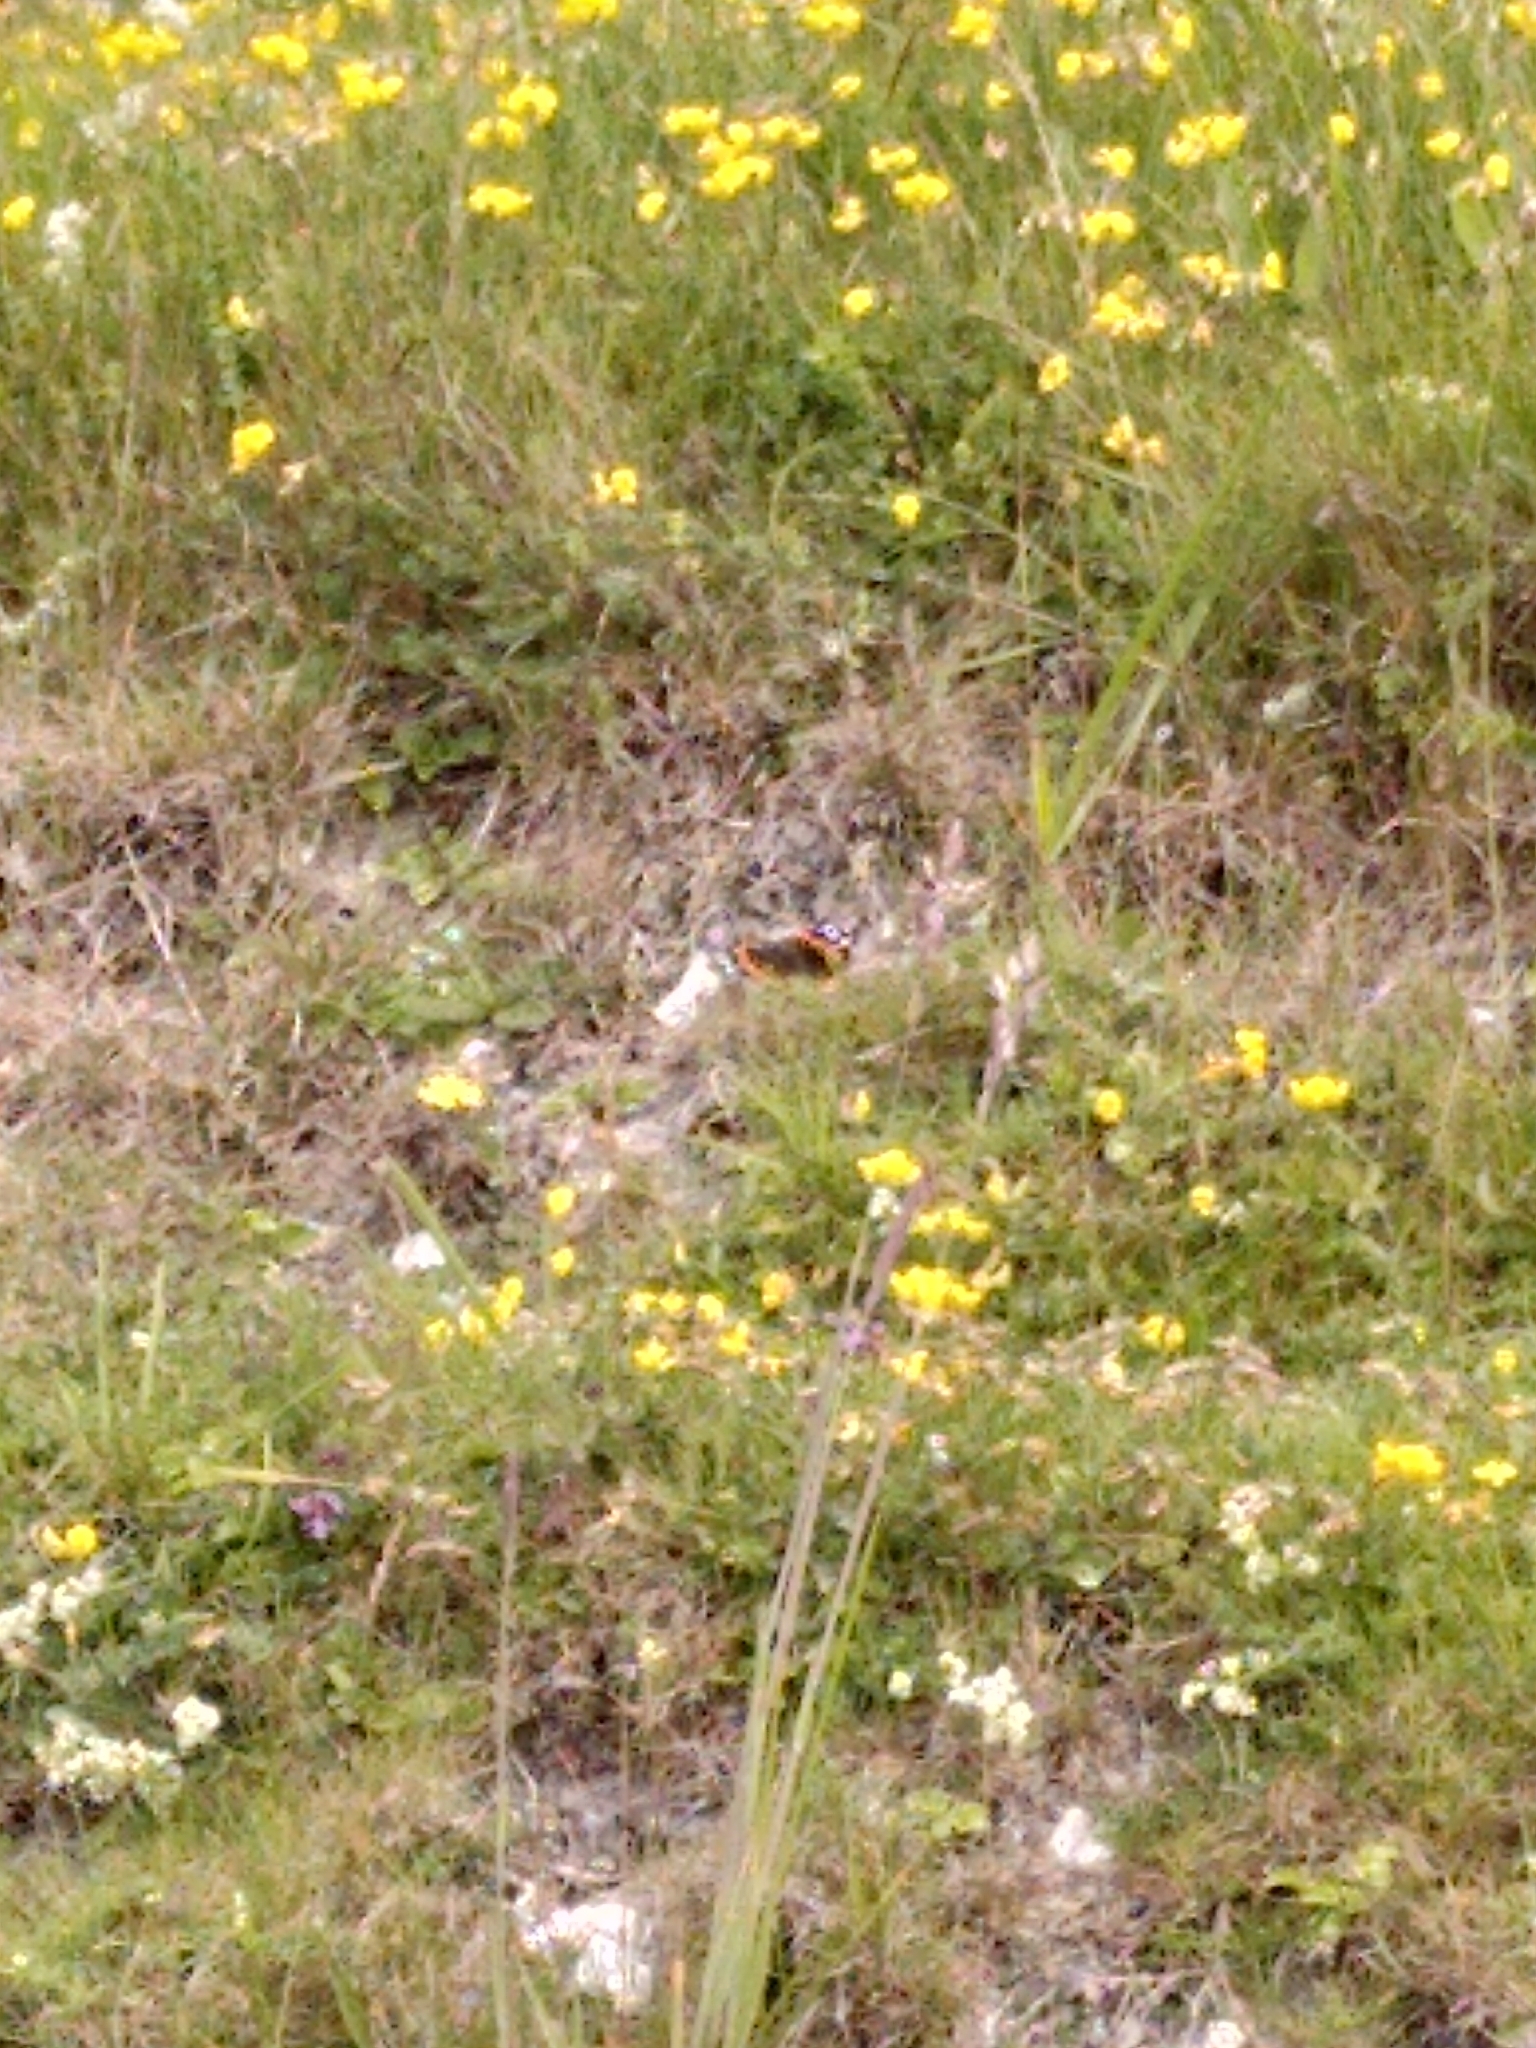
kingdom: Animalia
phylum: Arthropoda
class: Insecta
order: Lepidoptera
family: Nymphalidae
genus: Vanessa
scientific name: Vanessa atalanta
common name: Red admiral
